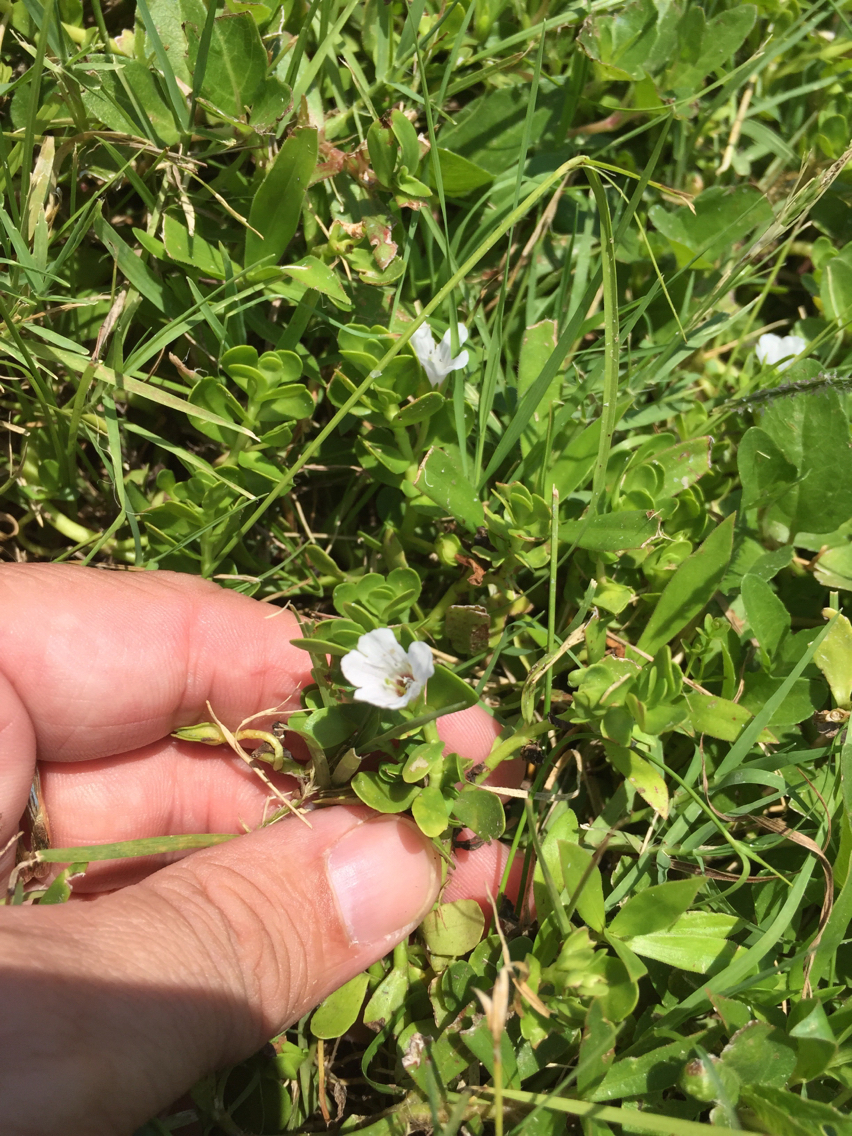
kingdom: Plantae
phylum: Tracheophyta
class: Magnoliopsida
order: Lamiales
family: Plantaginaceae
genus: Bacopa
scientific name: Bacopa monnieri
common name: Indian-pennywort
